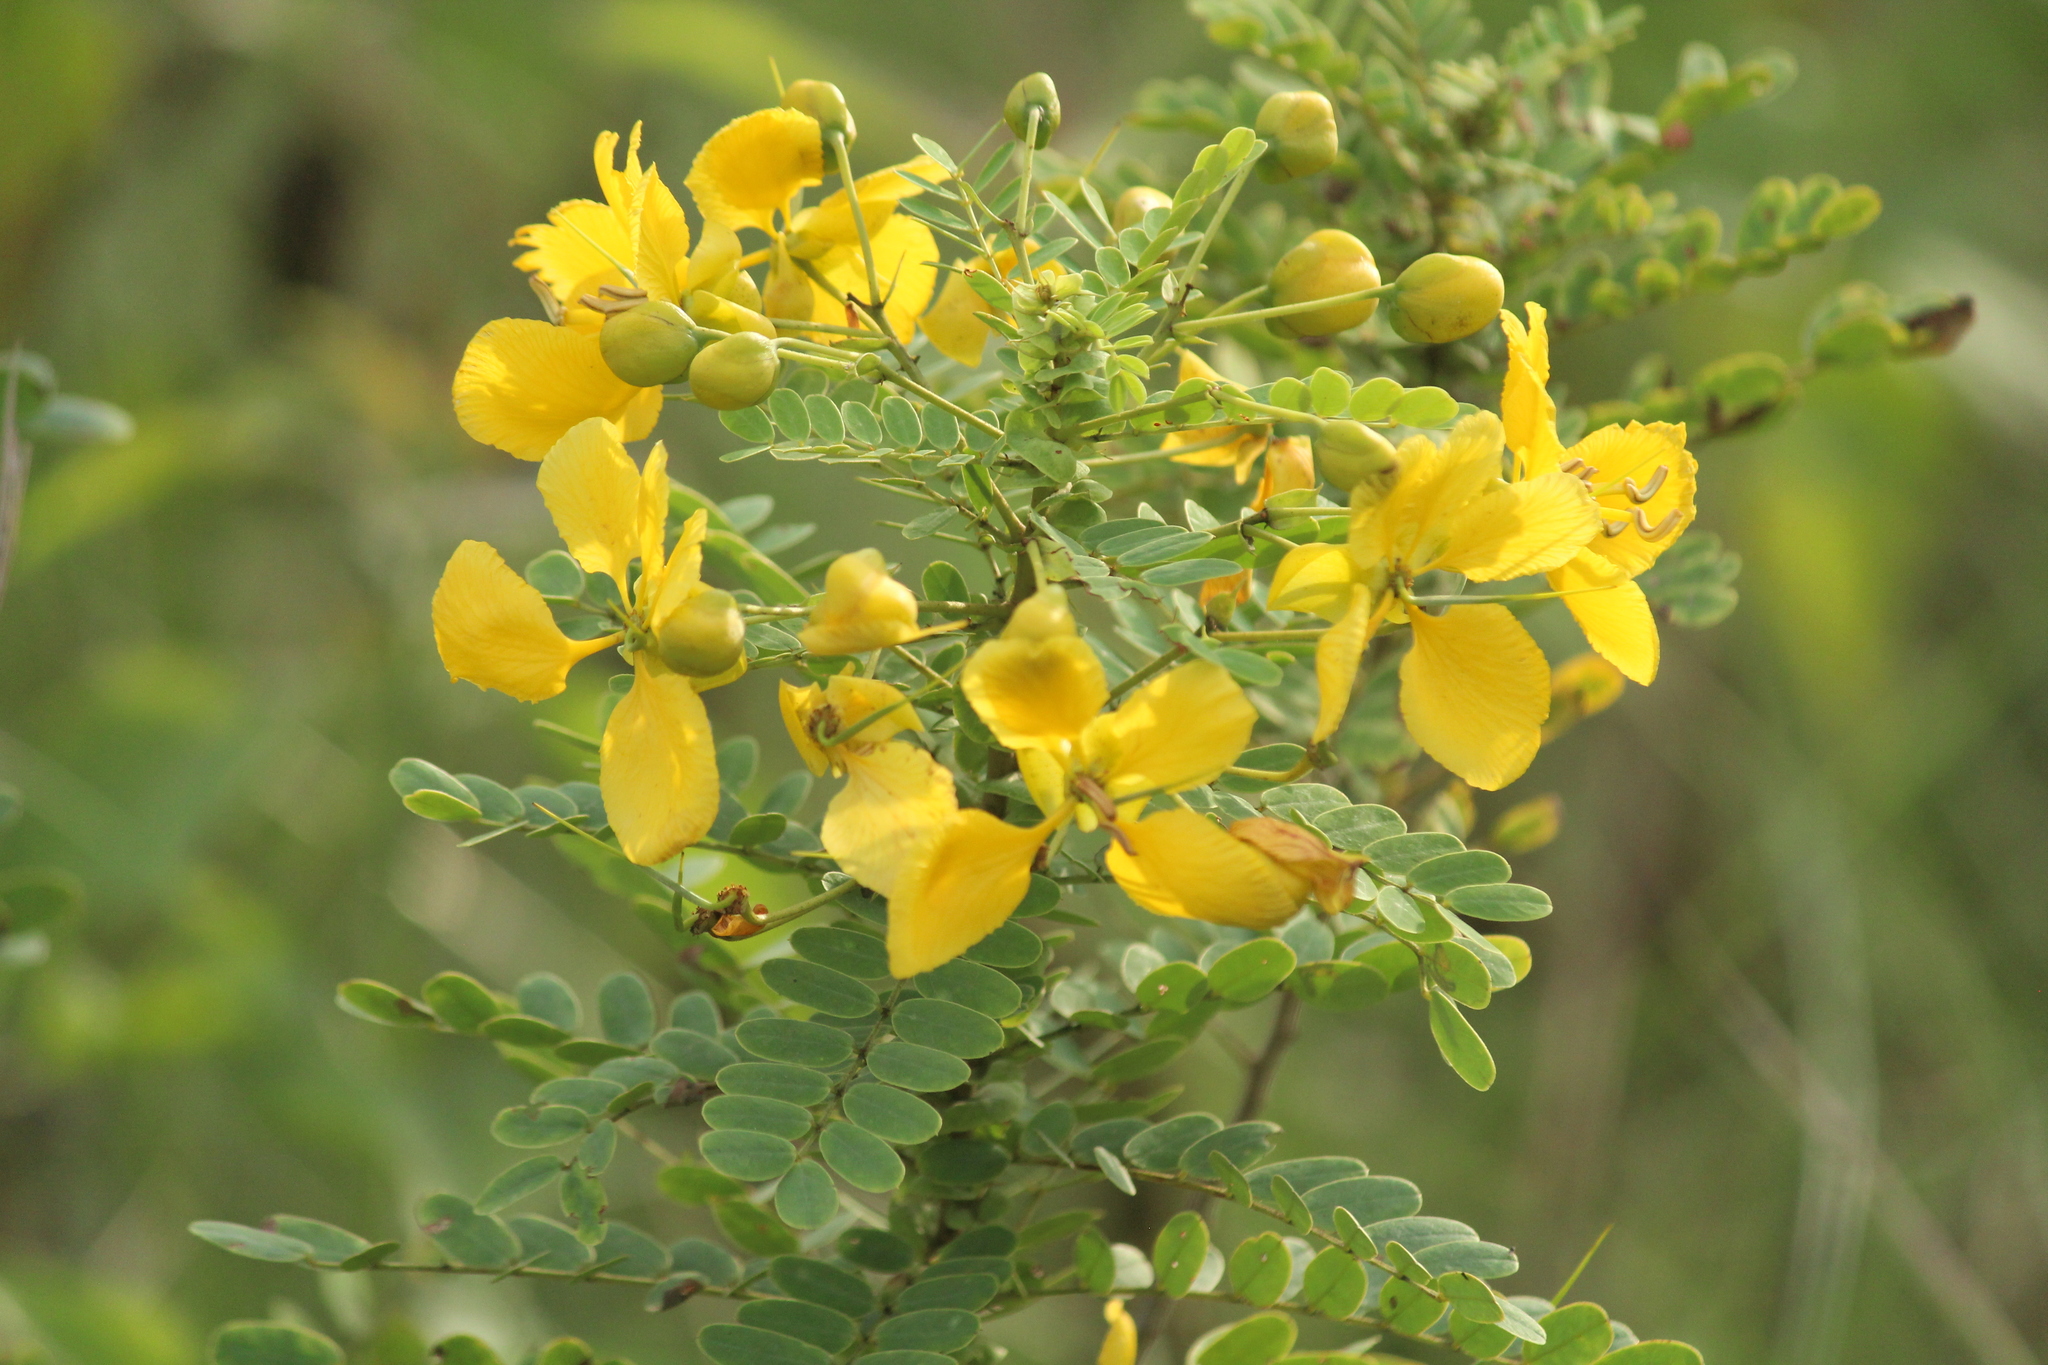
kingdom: Plantae
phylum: Tracheophyta
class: Magnoliopsida
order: Fabales
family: Fabaceae
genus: Senna
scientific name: Senna auriculata
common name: Tanner's cassia
